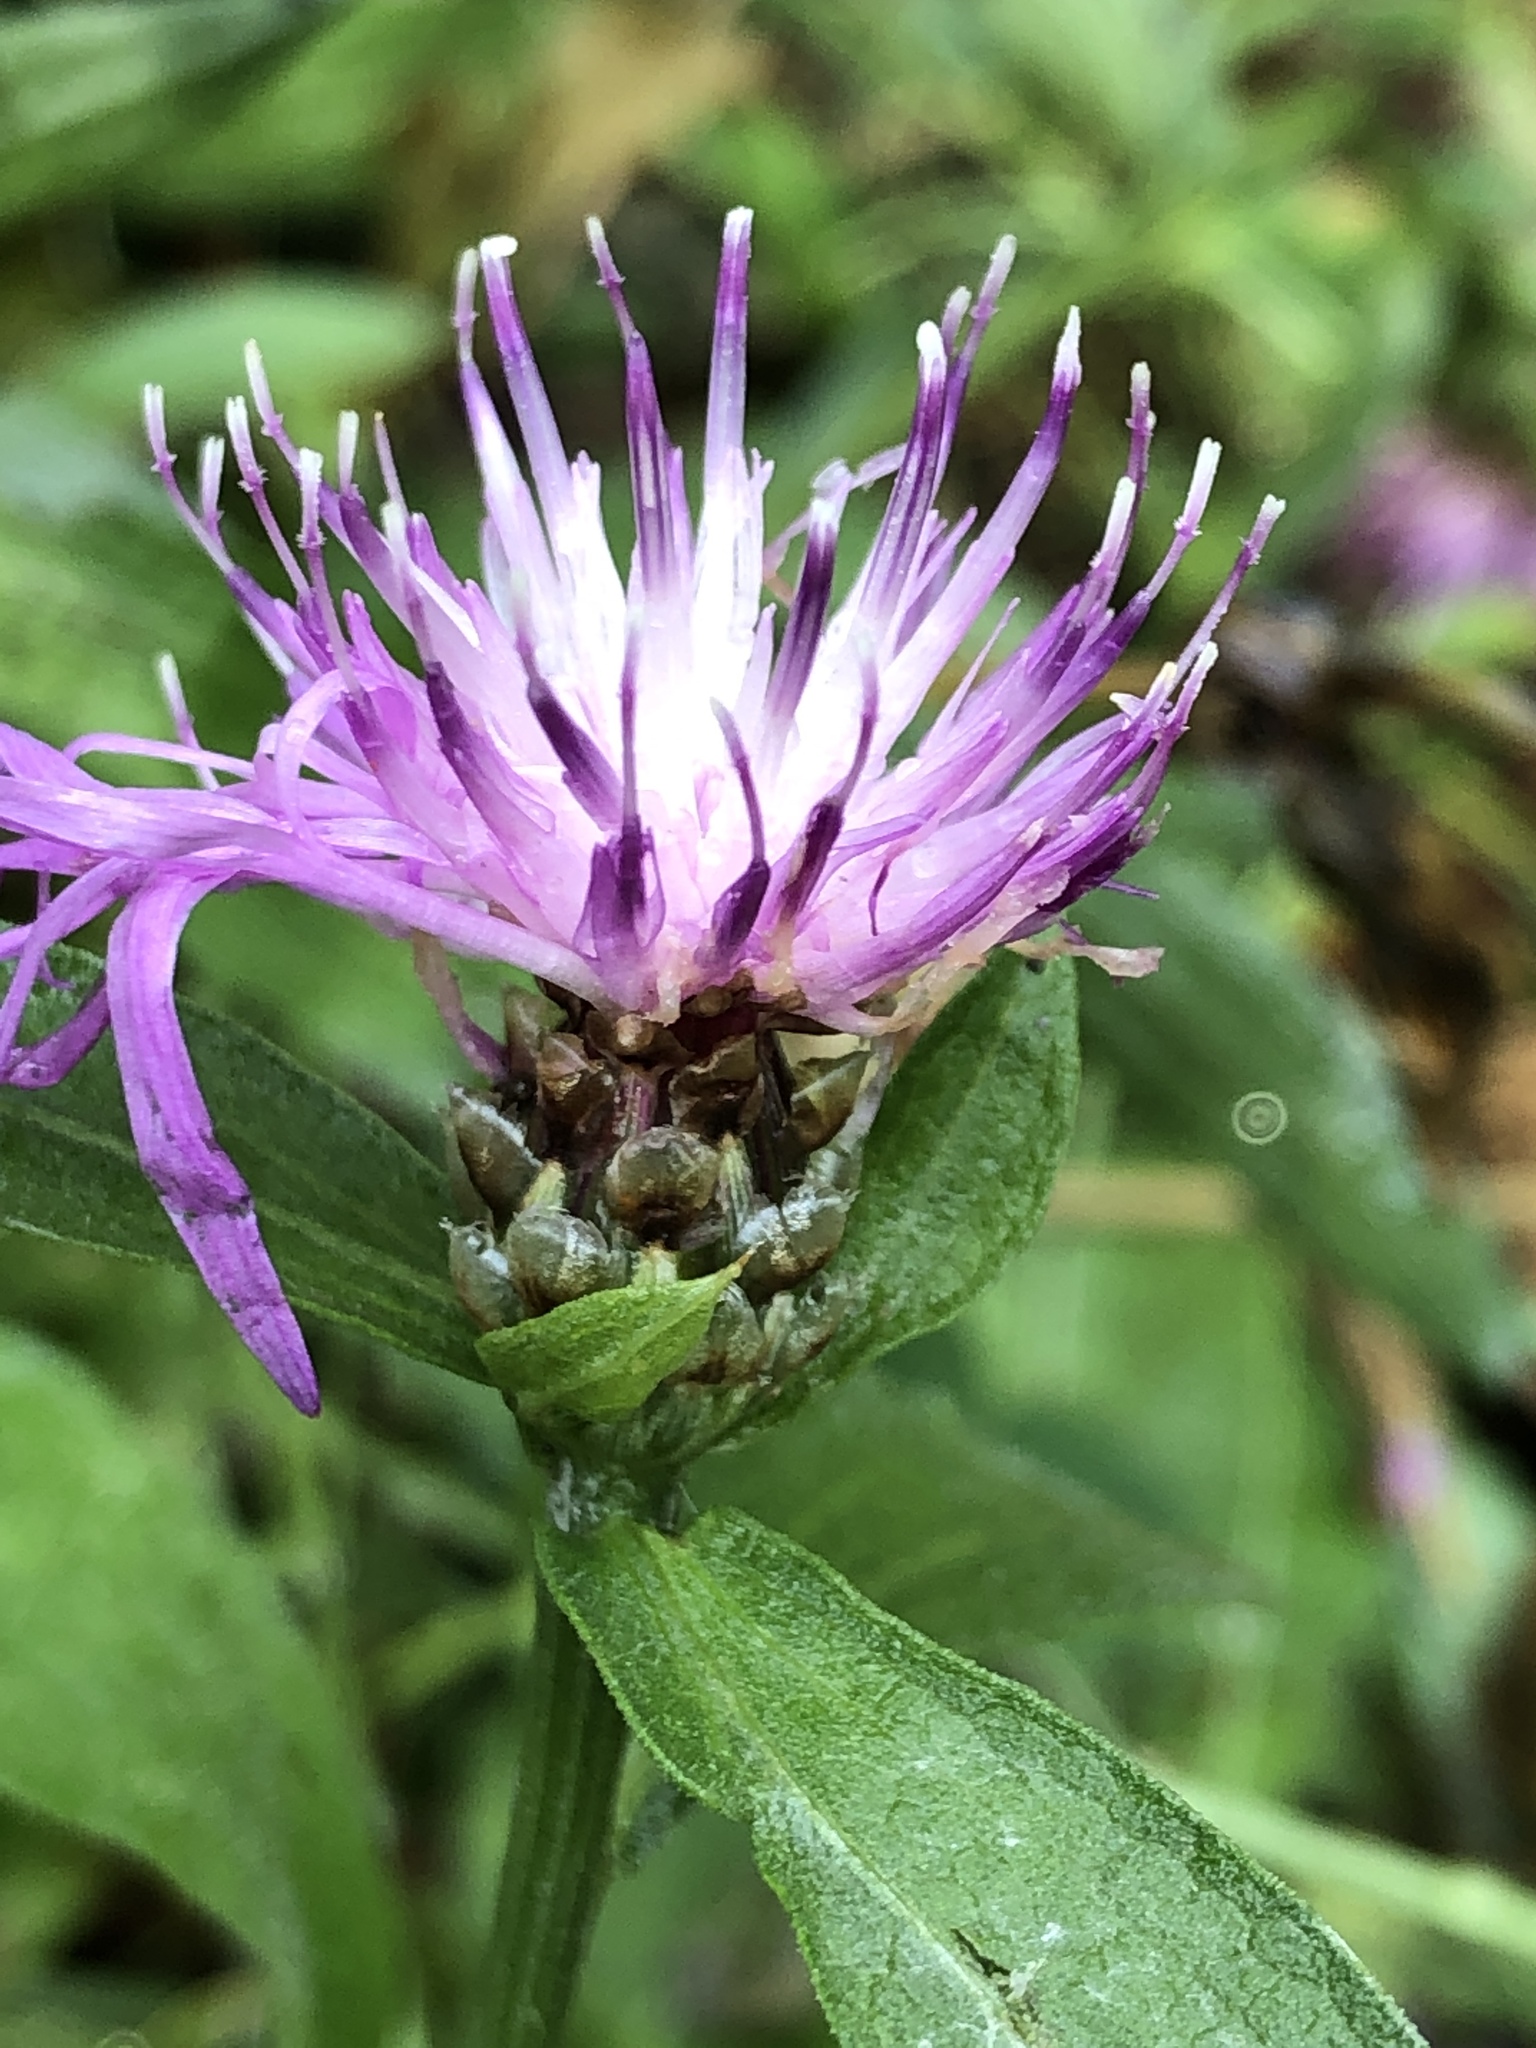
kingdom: Plantae
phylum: Tracheophyta
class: Magnoliopsida
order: Asterales
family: Asteraceae
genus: Centaurea
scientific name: Centaurea jacea
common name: Brown knapweed
